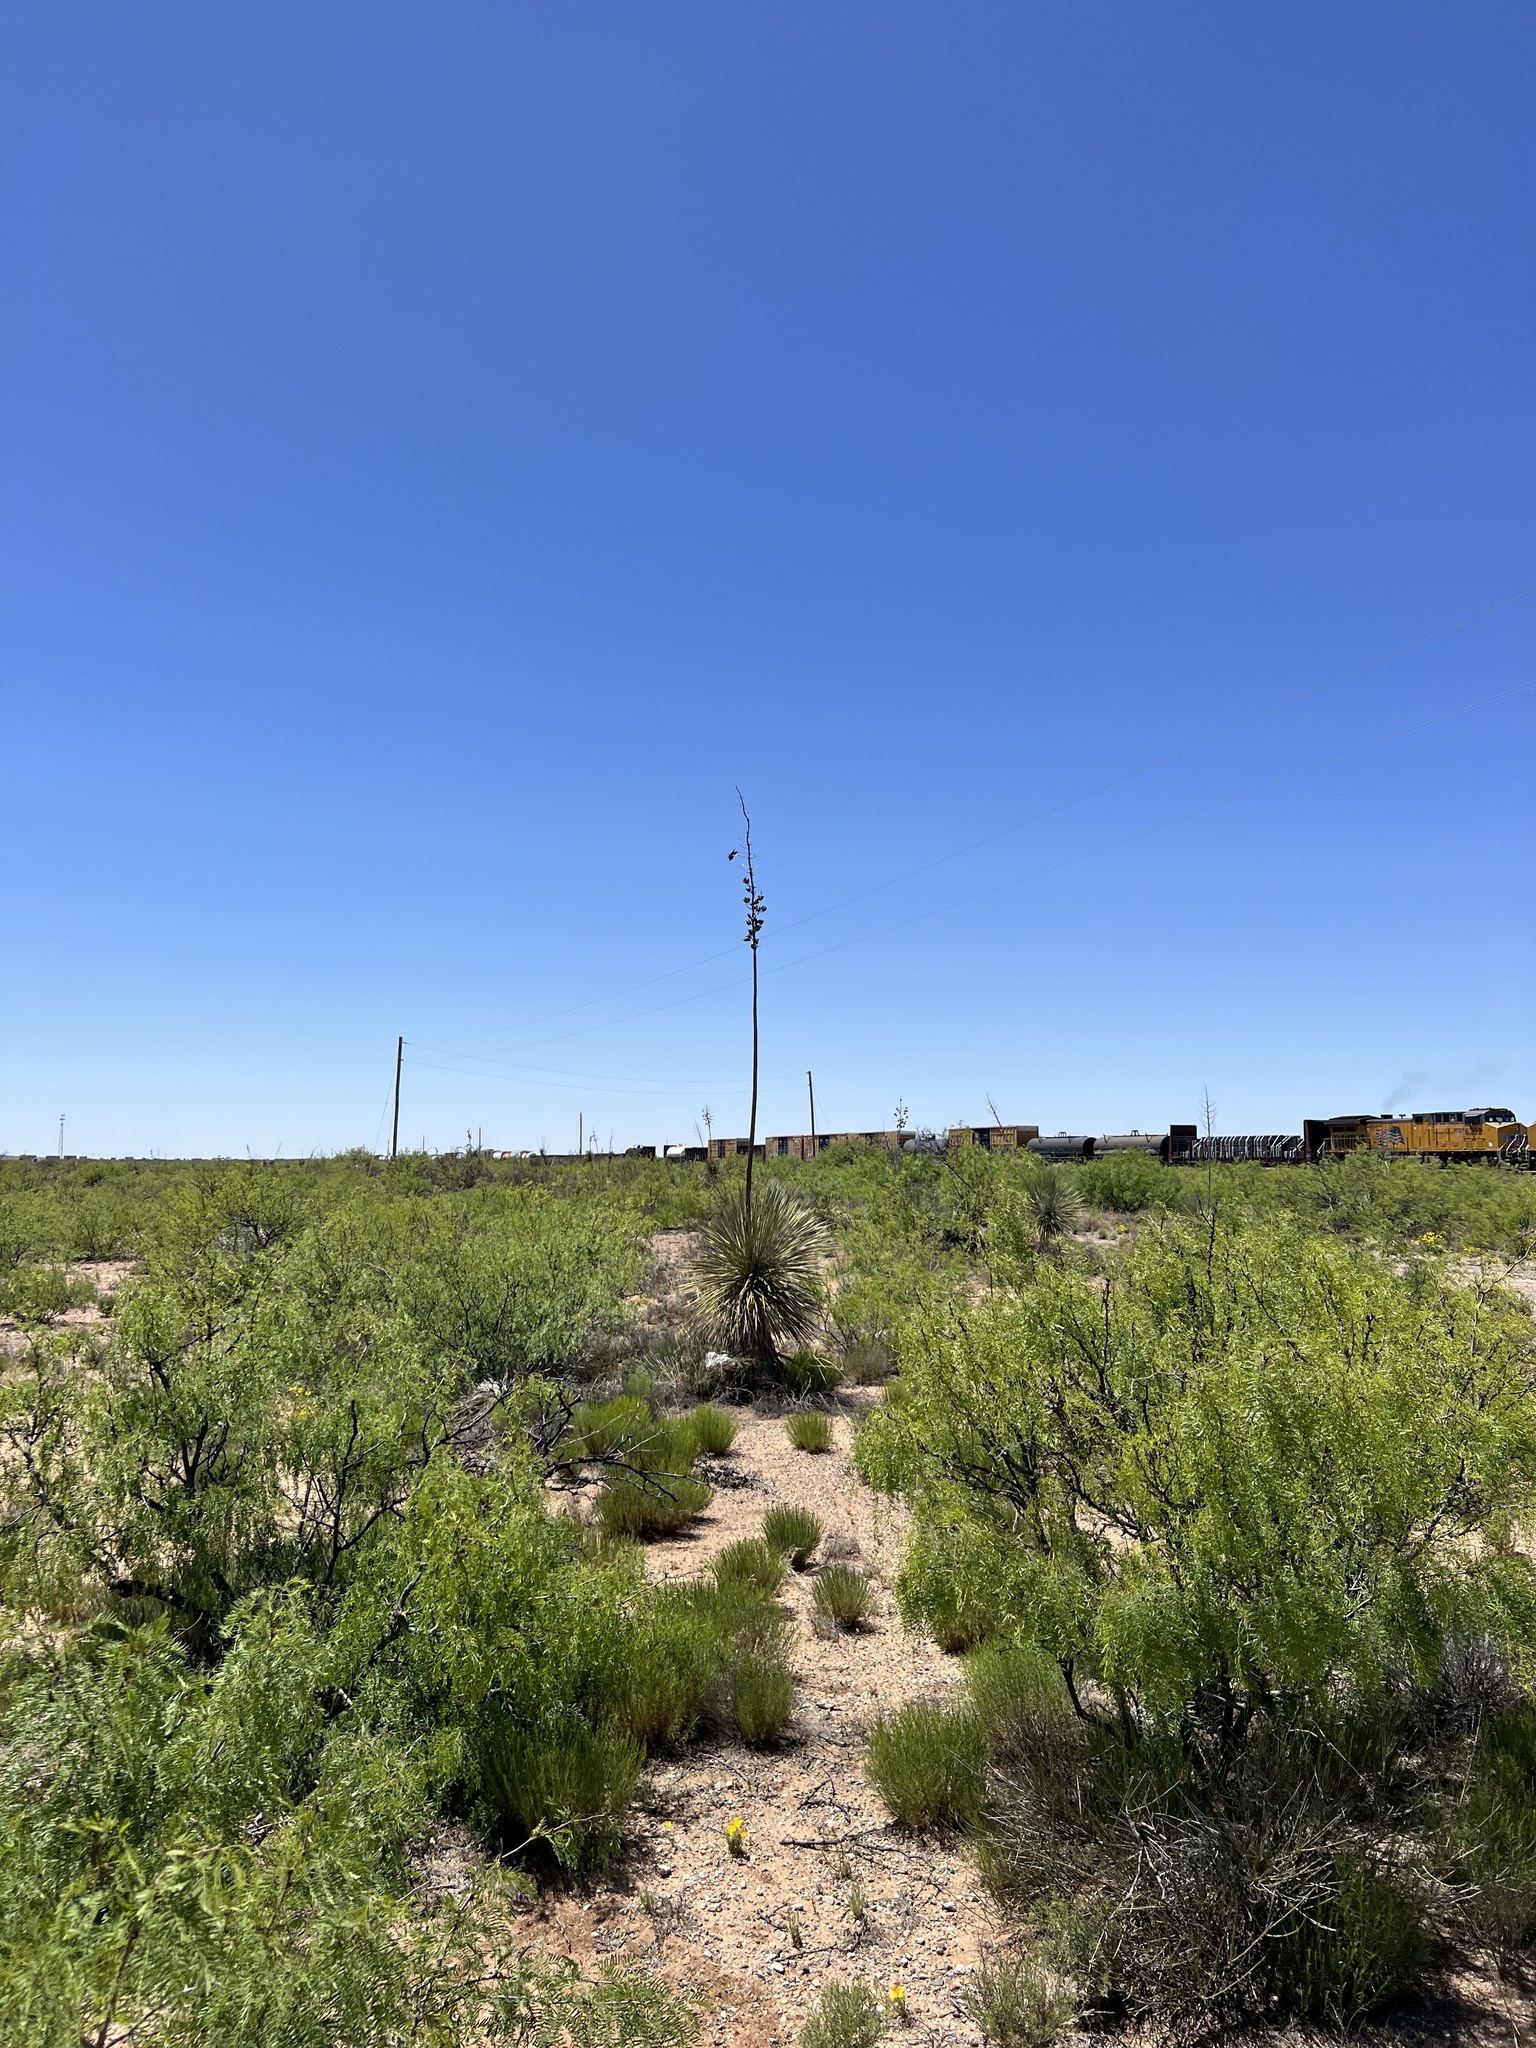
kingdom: Plantae
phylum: Tracheophyta
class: Liliopsida
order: Asparagales
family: Asparagaceae
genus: Yucca
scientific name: Yucca elata
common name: Palmella
